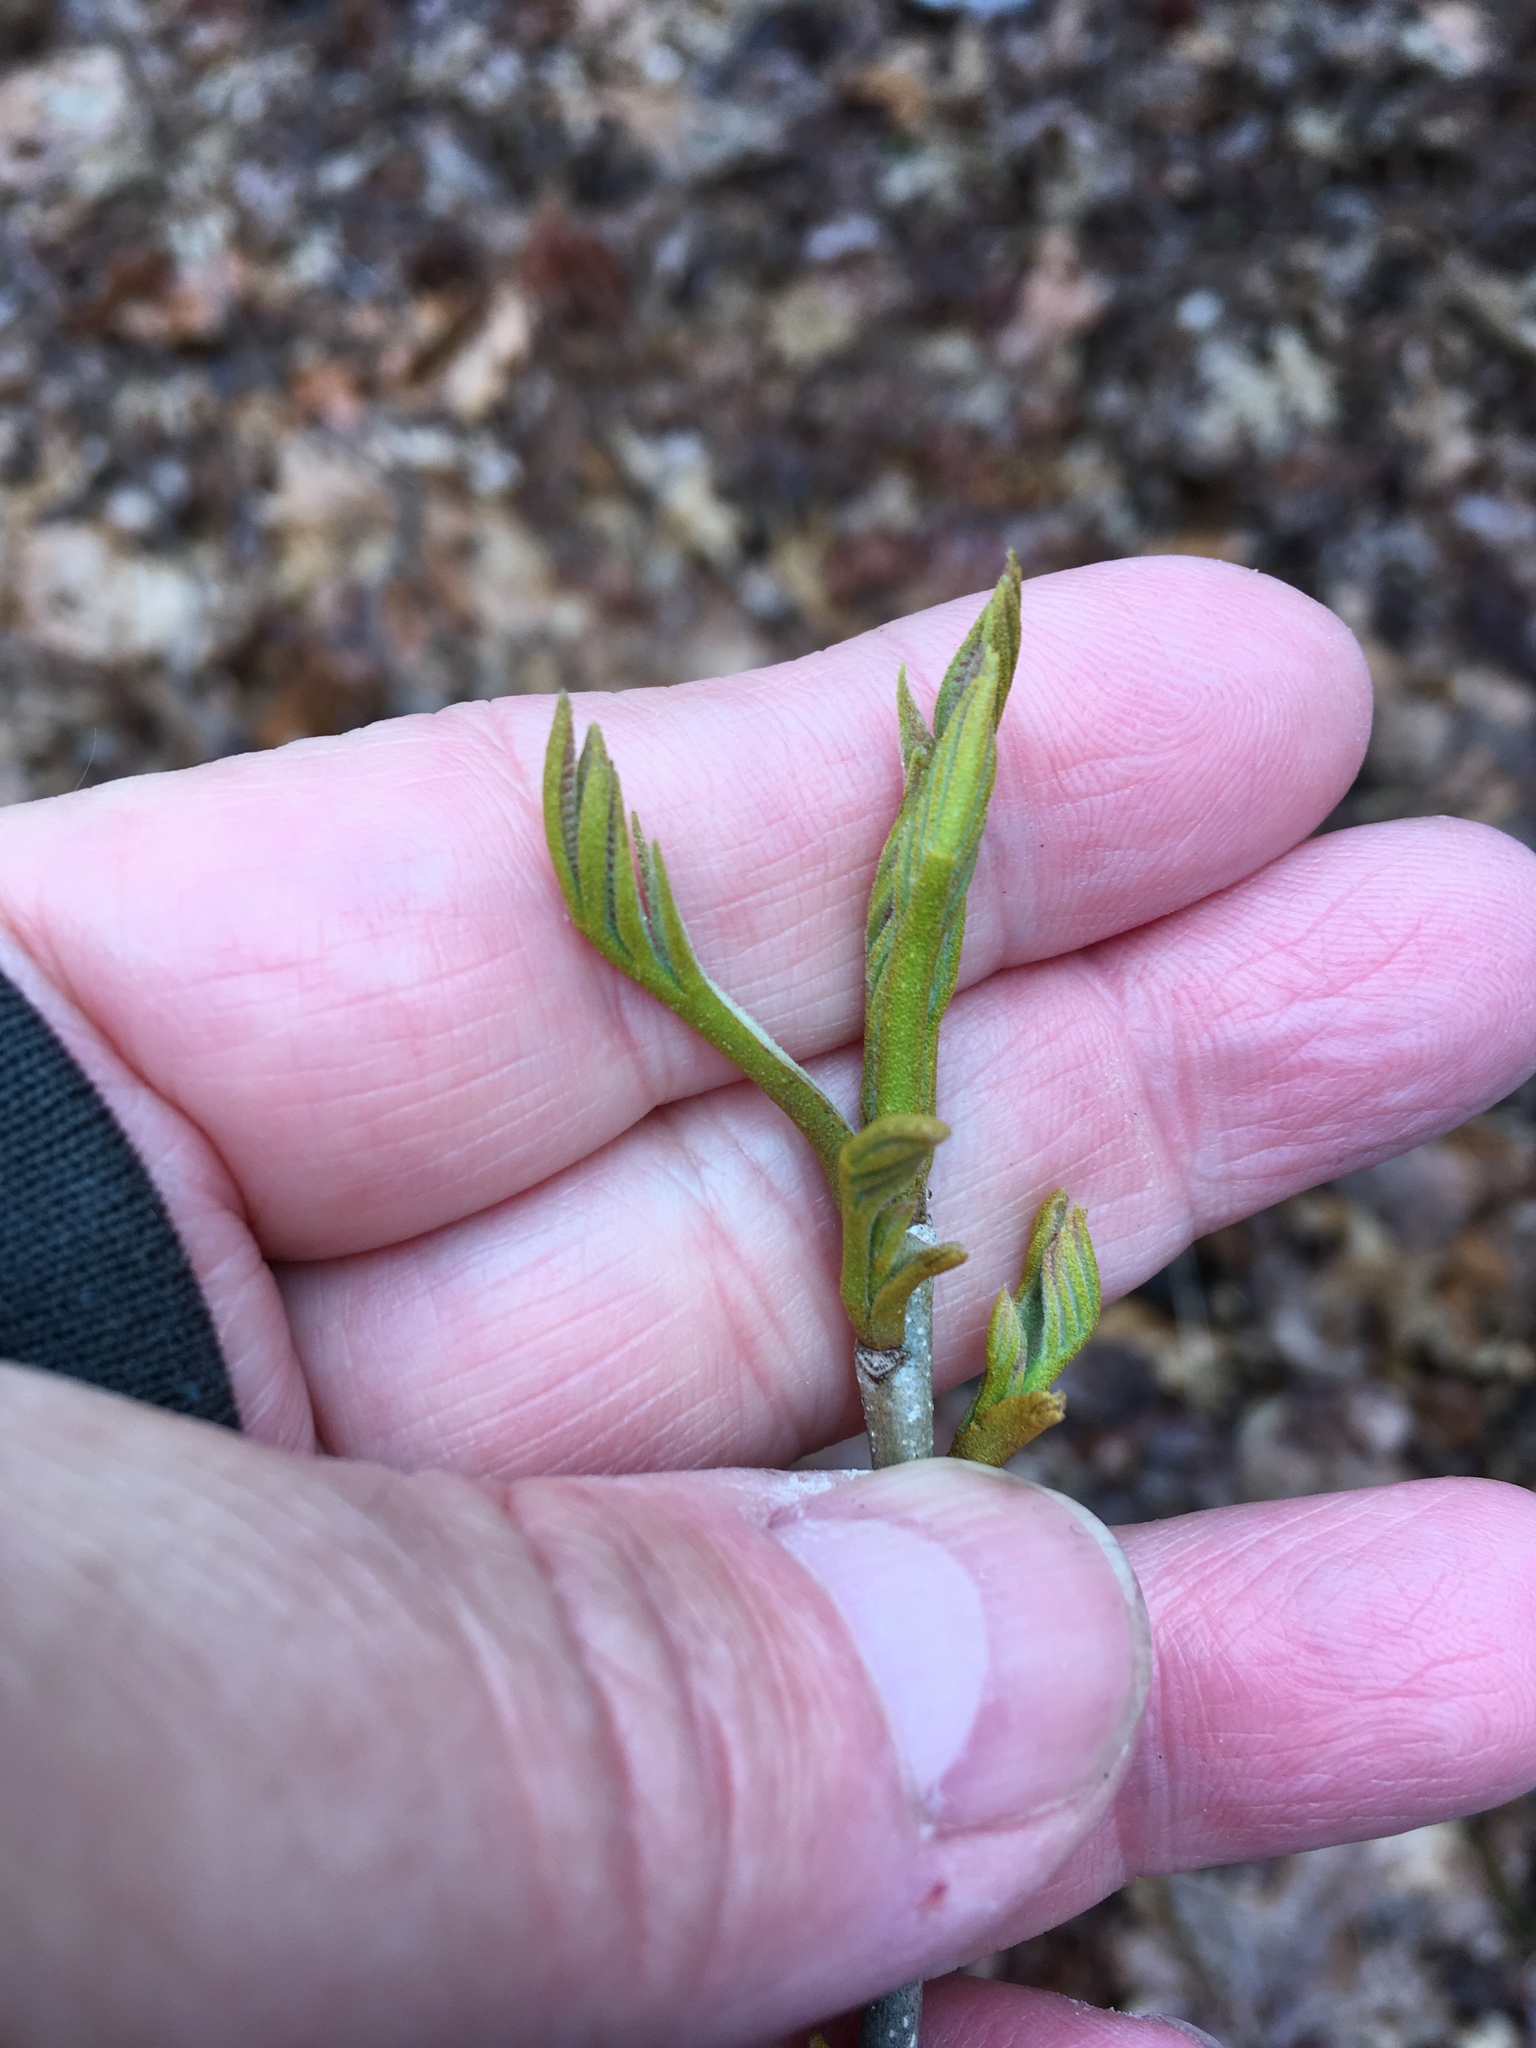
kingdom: Plantae
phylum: Tracheophyta
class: Magnoliopsida
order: Fagales
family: Juglandaceae
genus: Carya
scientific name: Carya cordiformis
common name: Bitternut hickory
